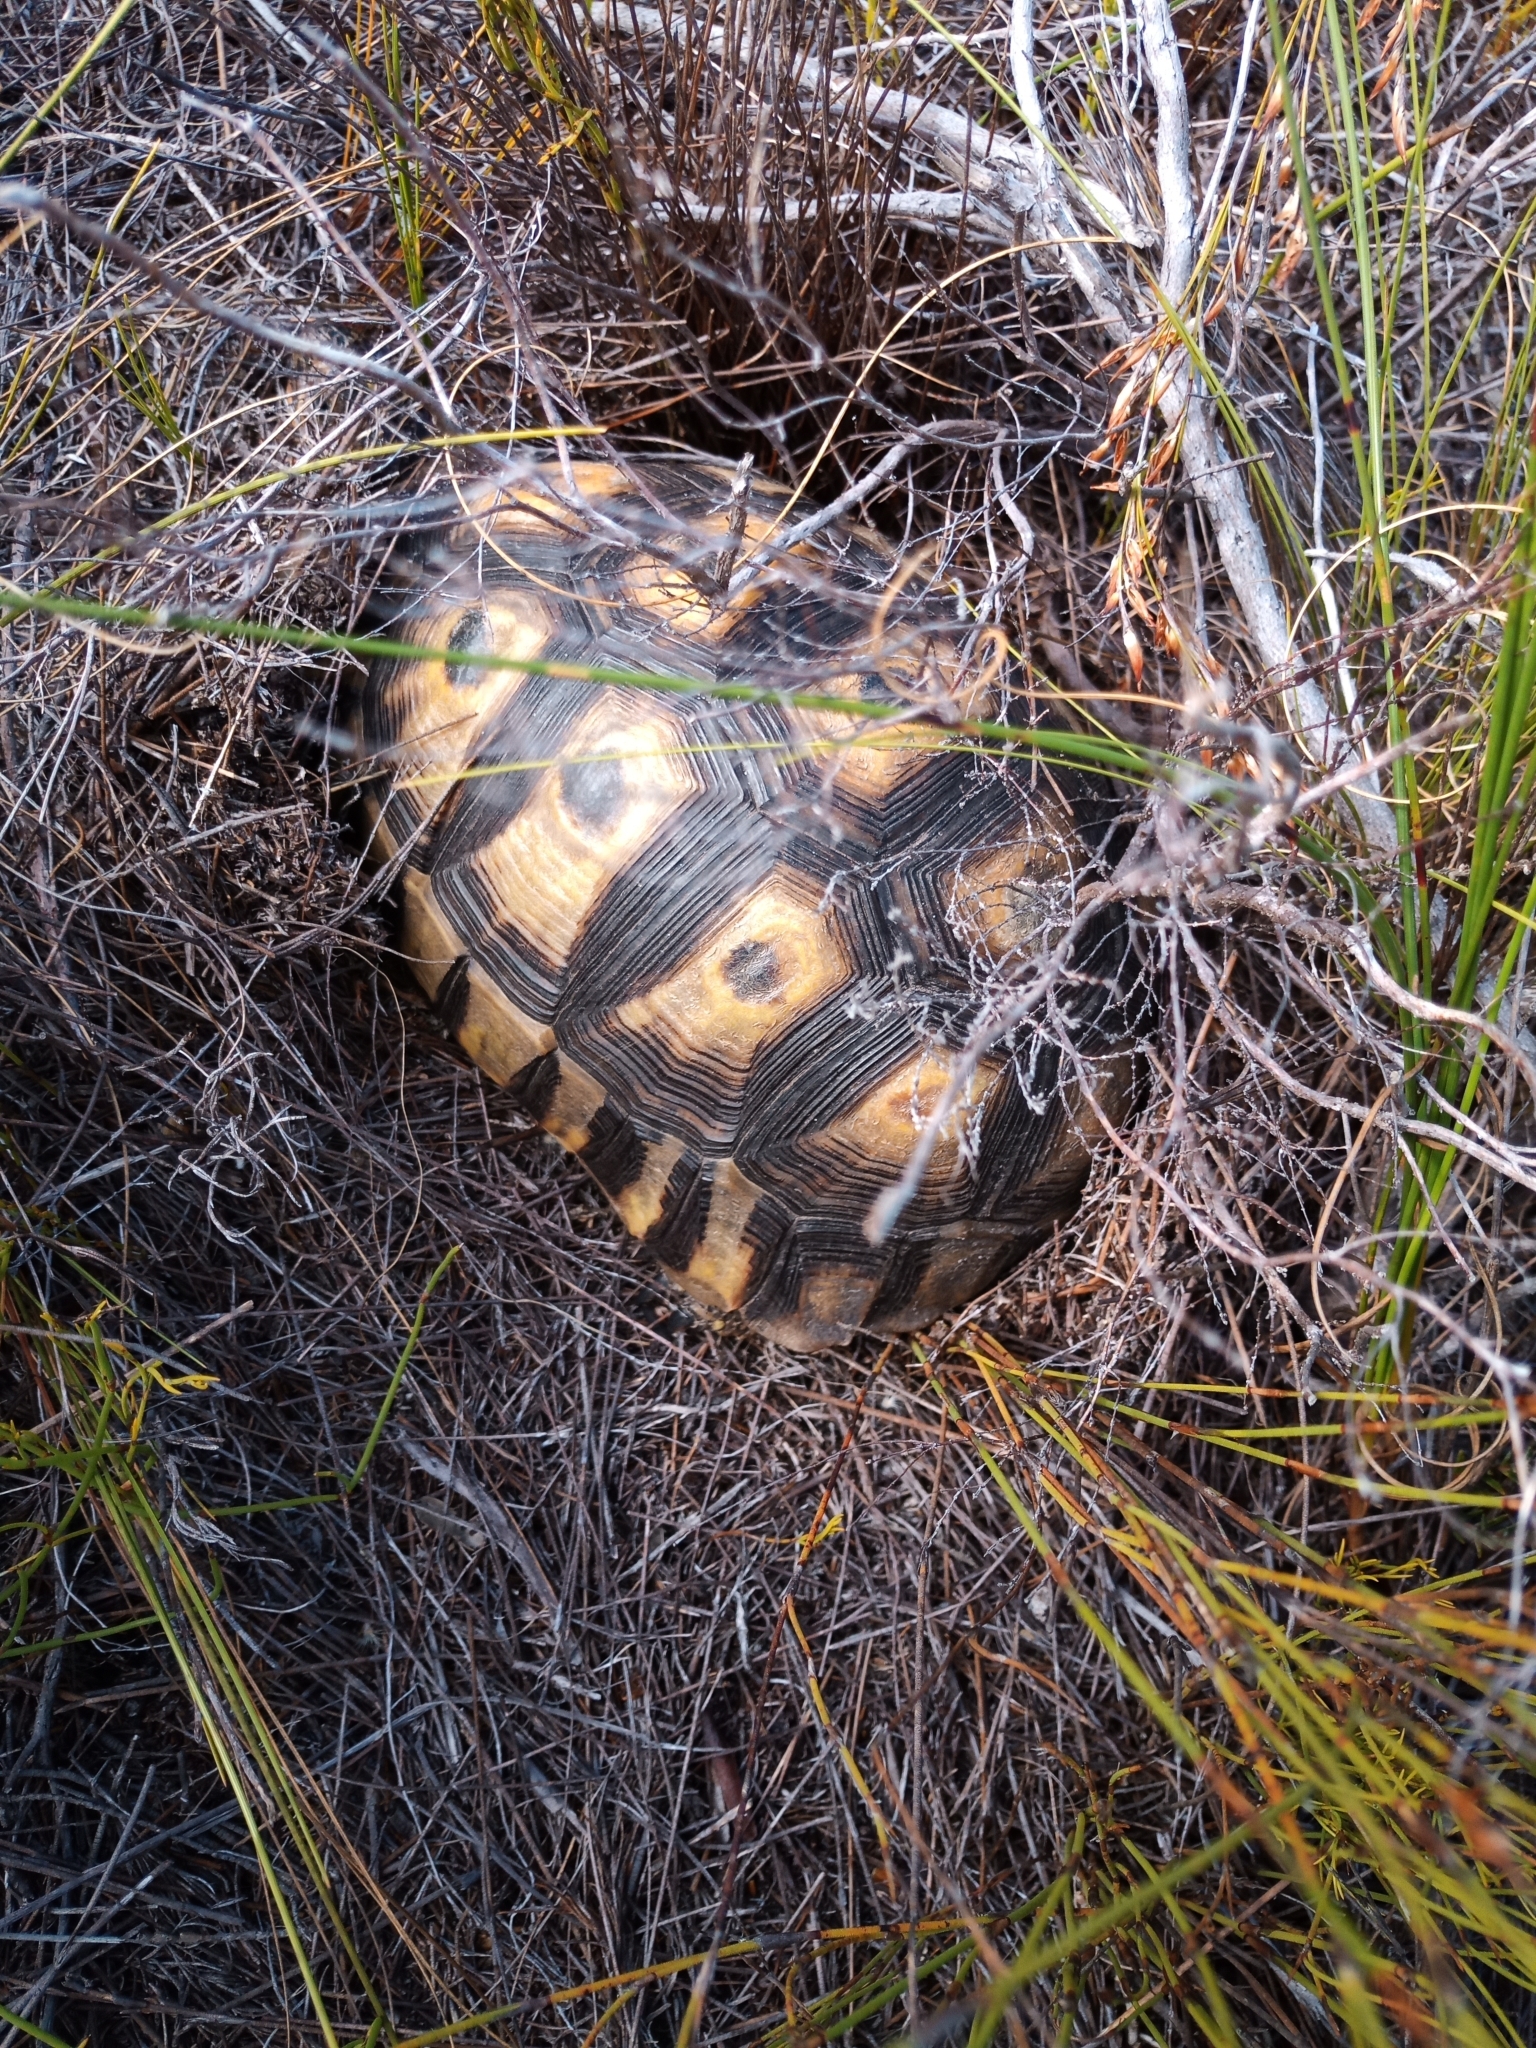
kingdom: Animalia
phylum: Chordata
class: Testudines
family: Testudinidae
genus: Chersina
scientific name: Chersina angulata
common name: South african bowsprit tortoise
